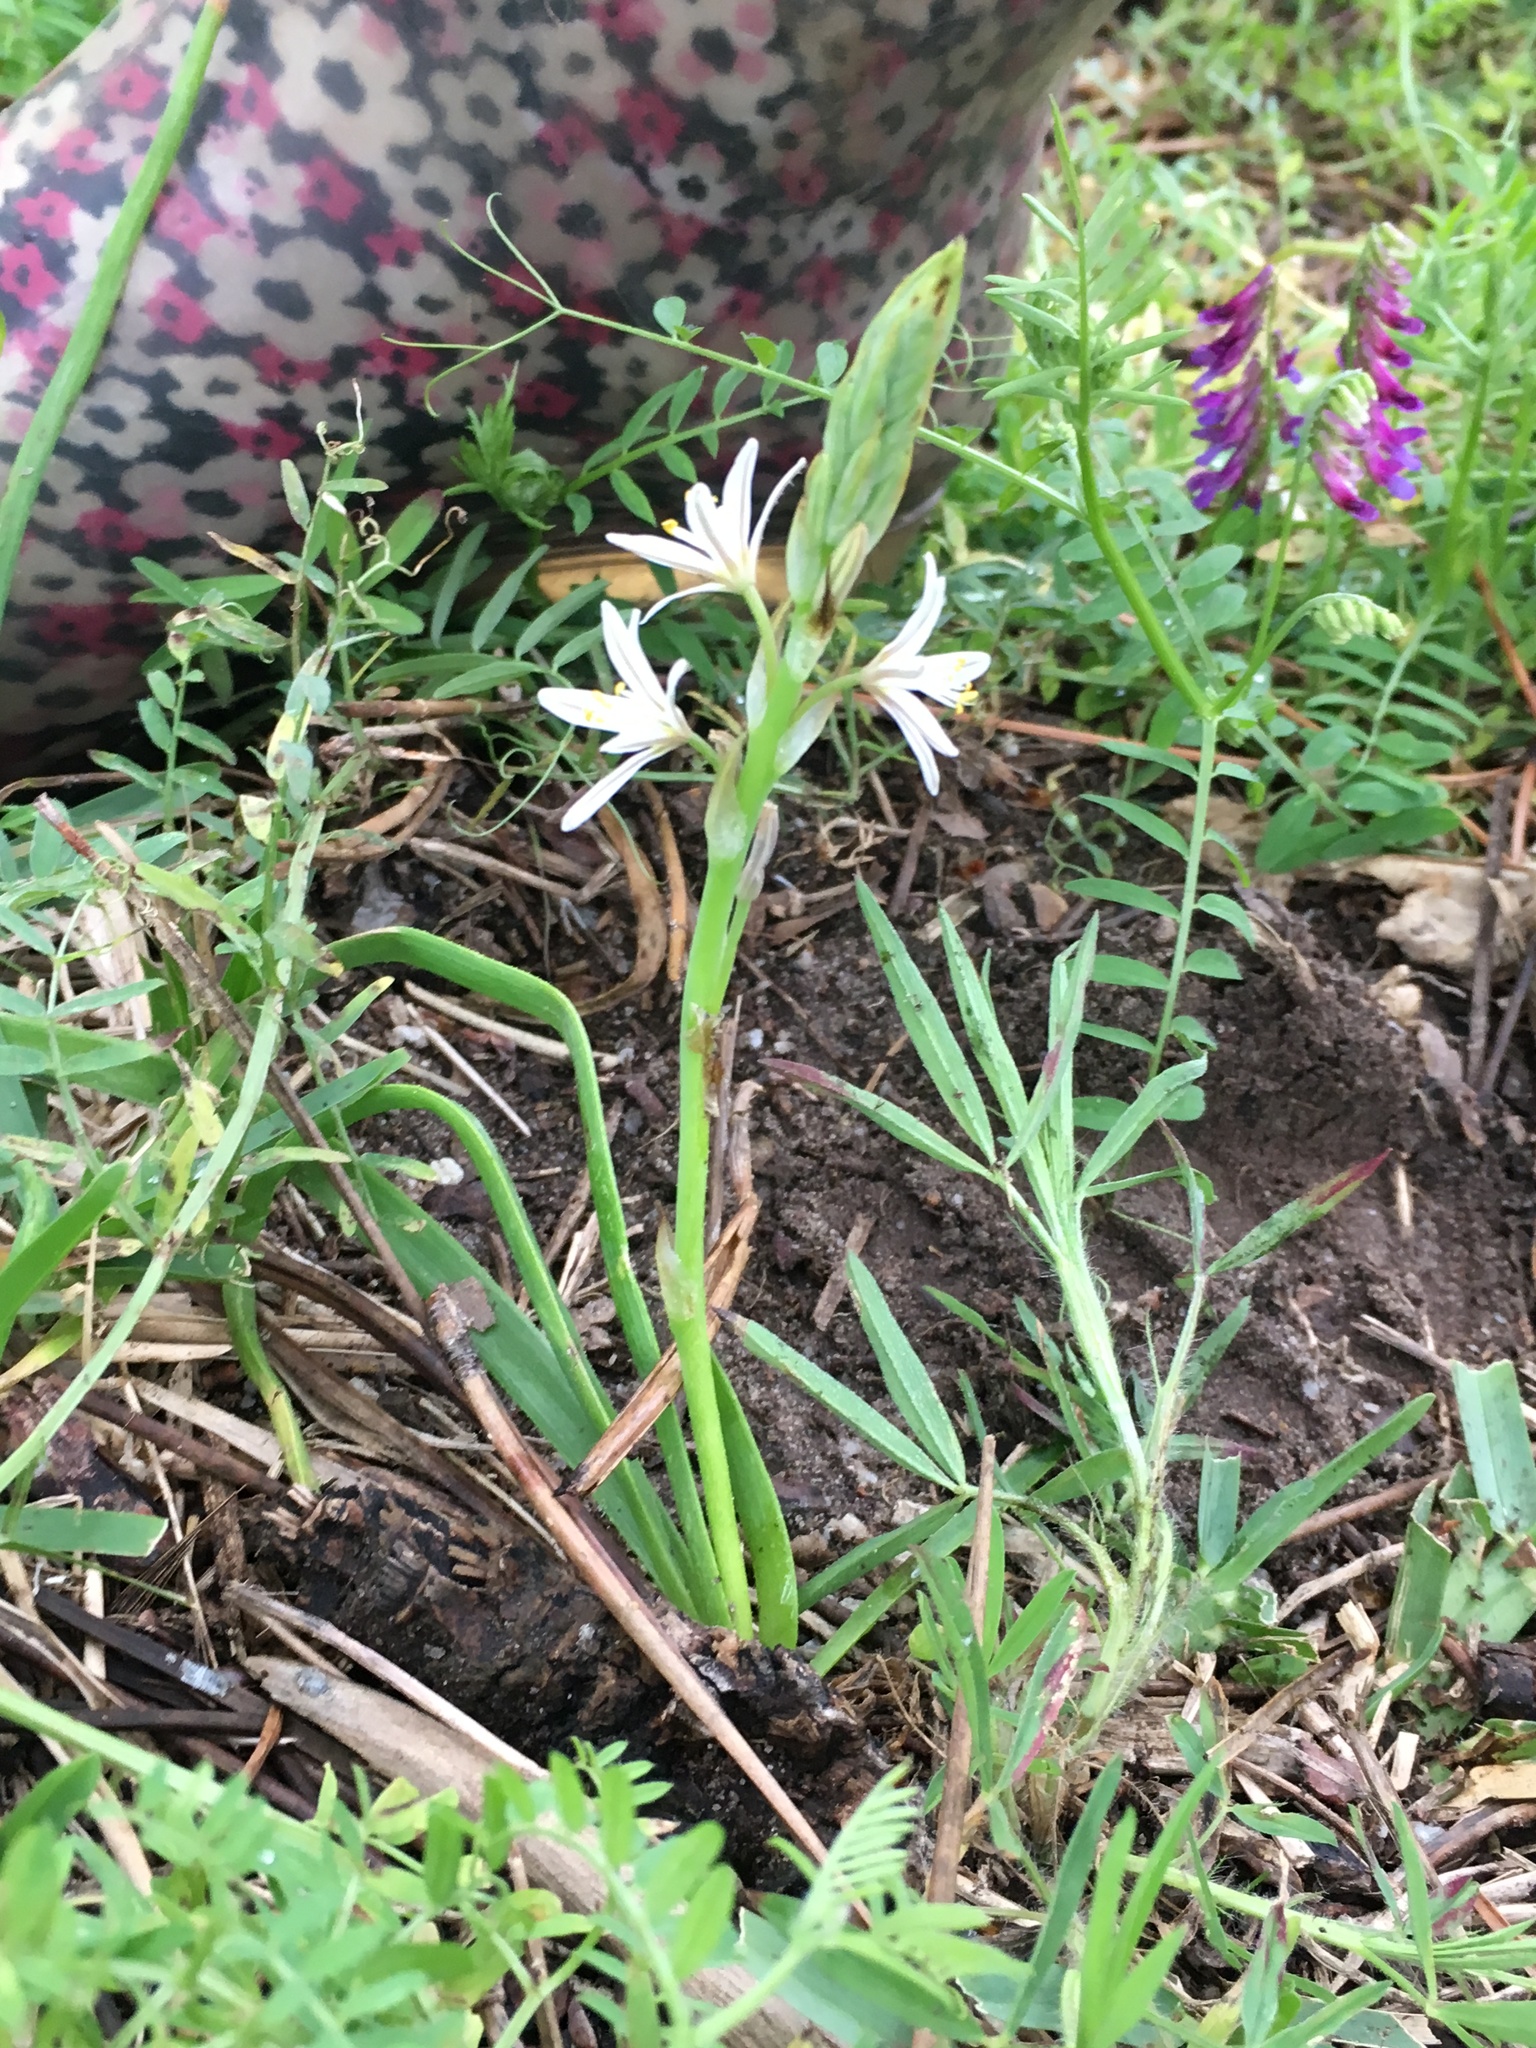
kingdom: Plantae
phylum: Tracheophyta
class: Liliopsida
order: Asparagales
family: Asphodelaceae
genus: Trachyandra
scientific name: Trachyandra ciliata
